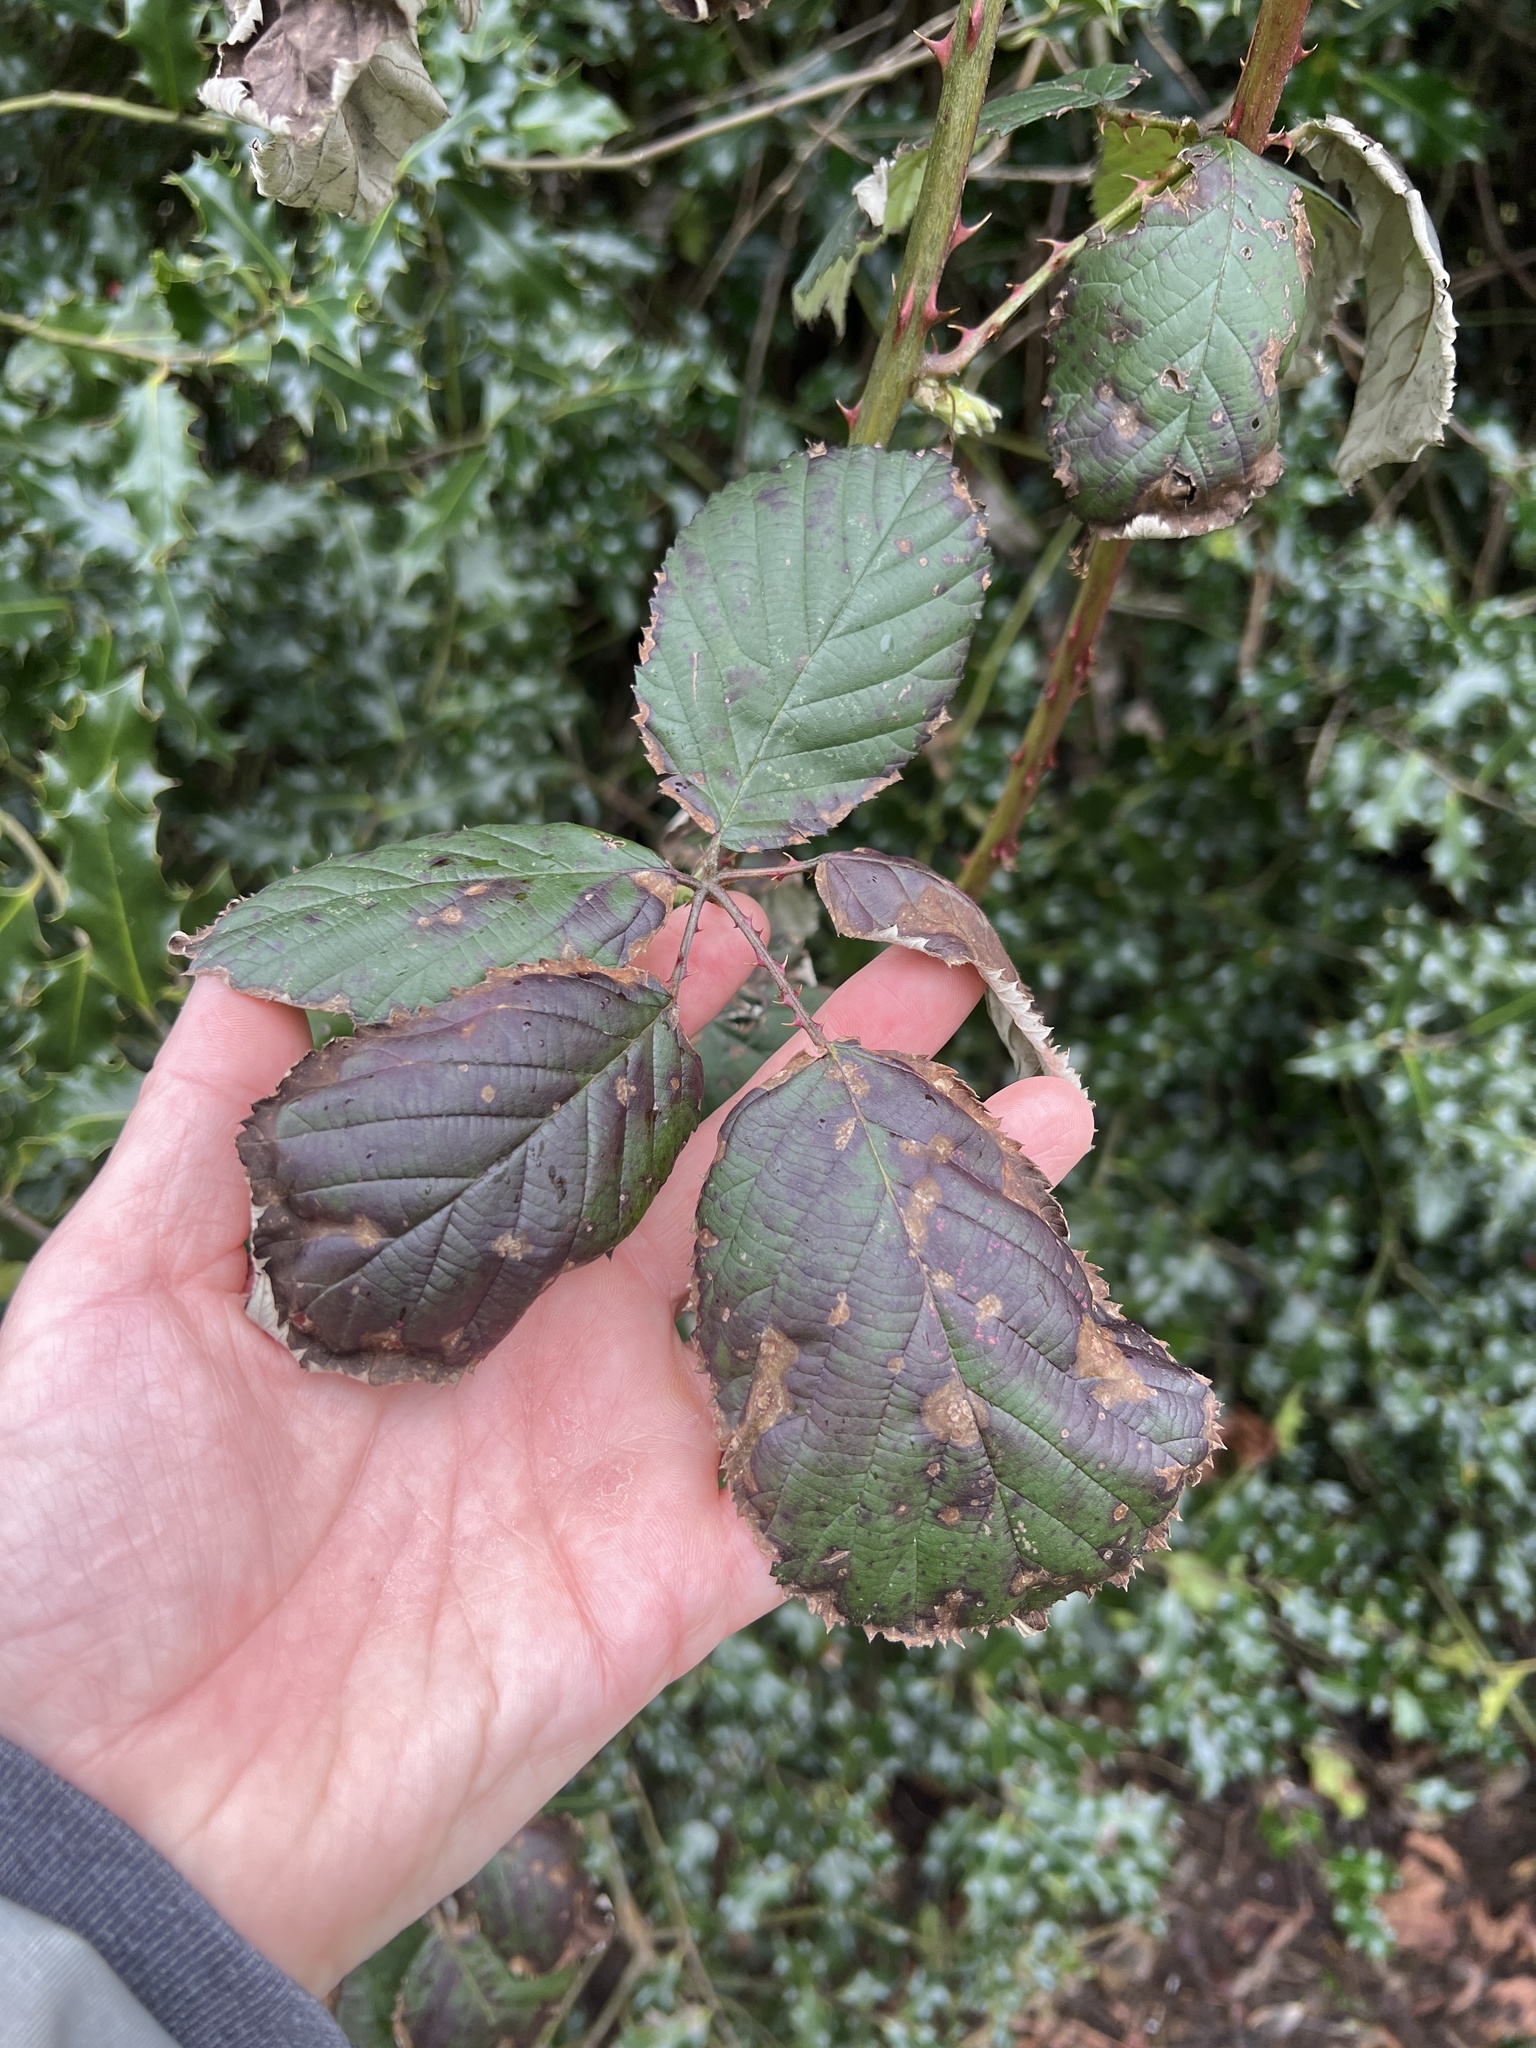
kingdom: Plantae
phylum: Tracheophyta
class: Magnoliopsida
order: Rosales
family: Rosaceae
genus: Rubus
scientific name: Rubus bifrons
